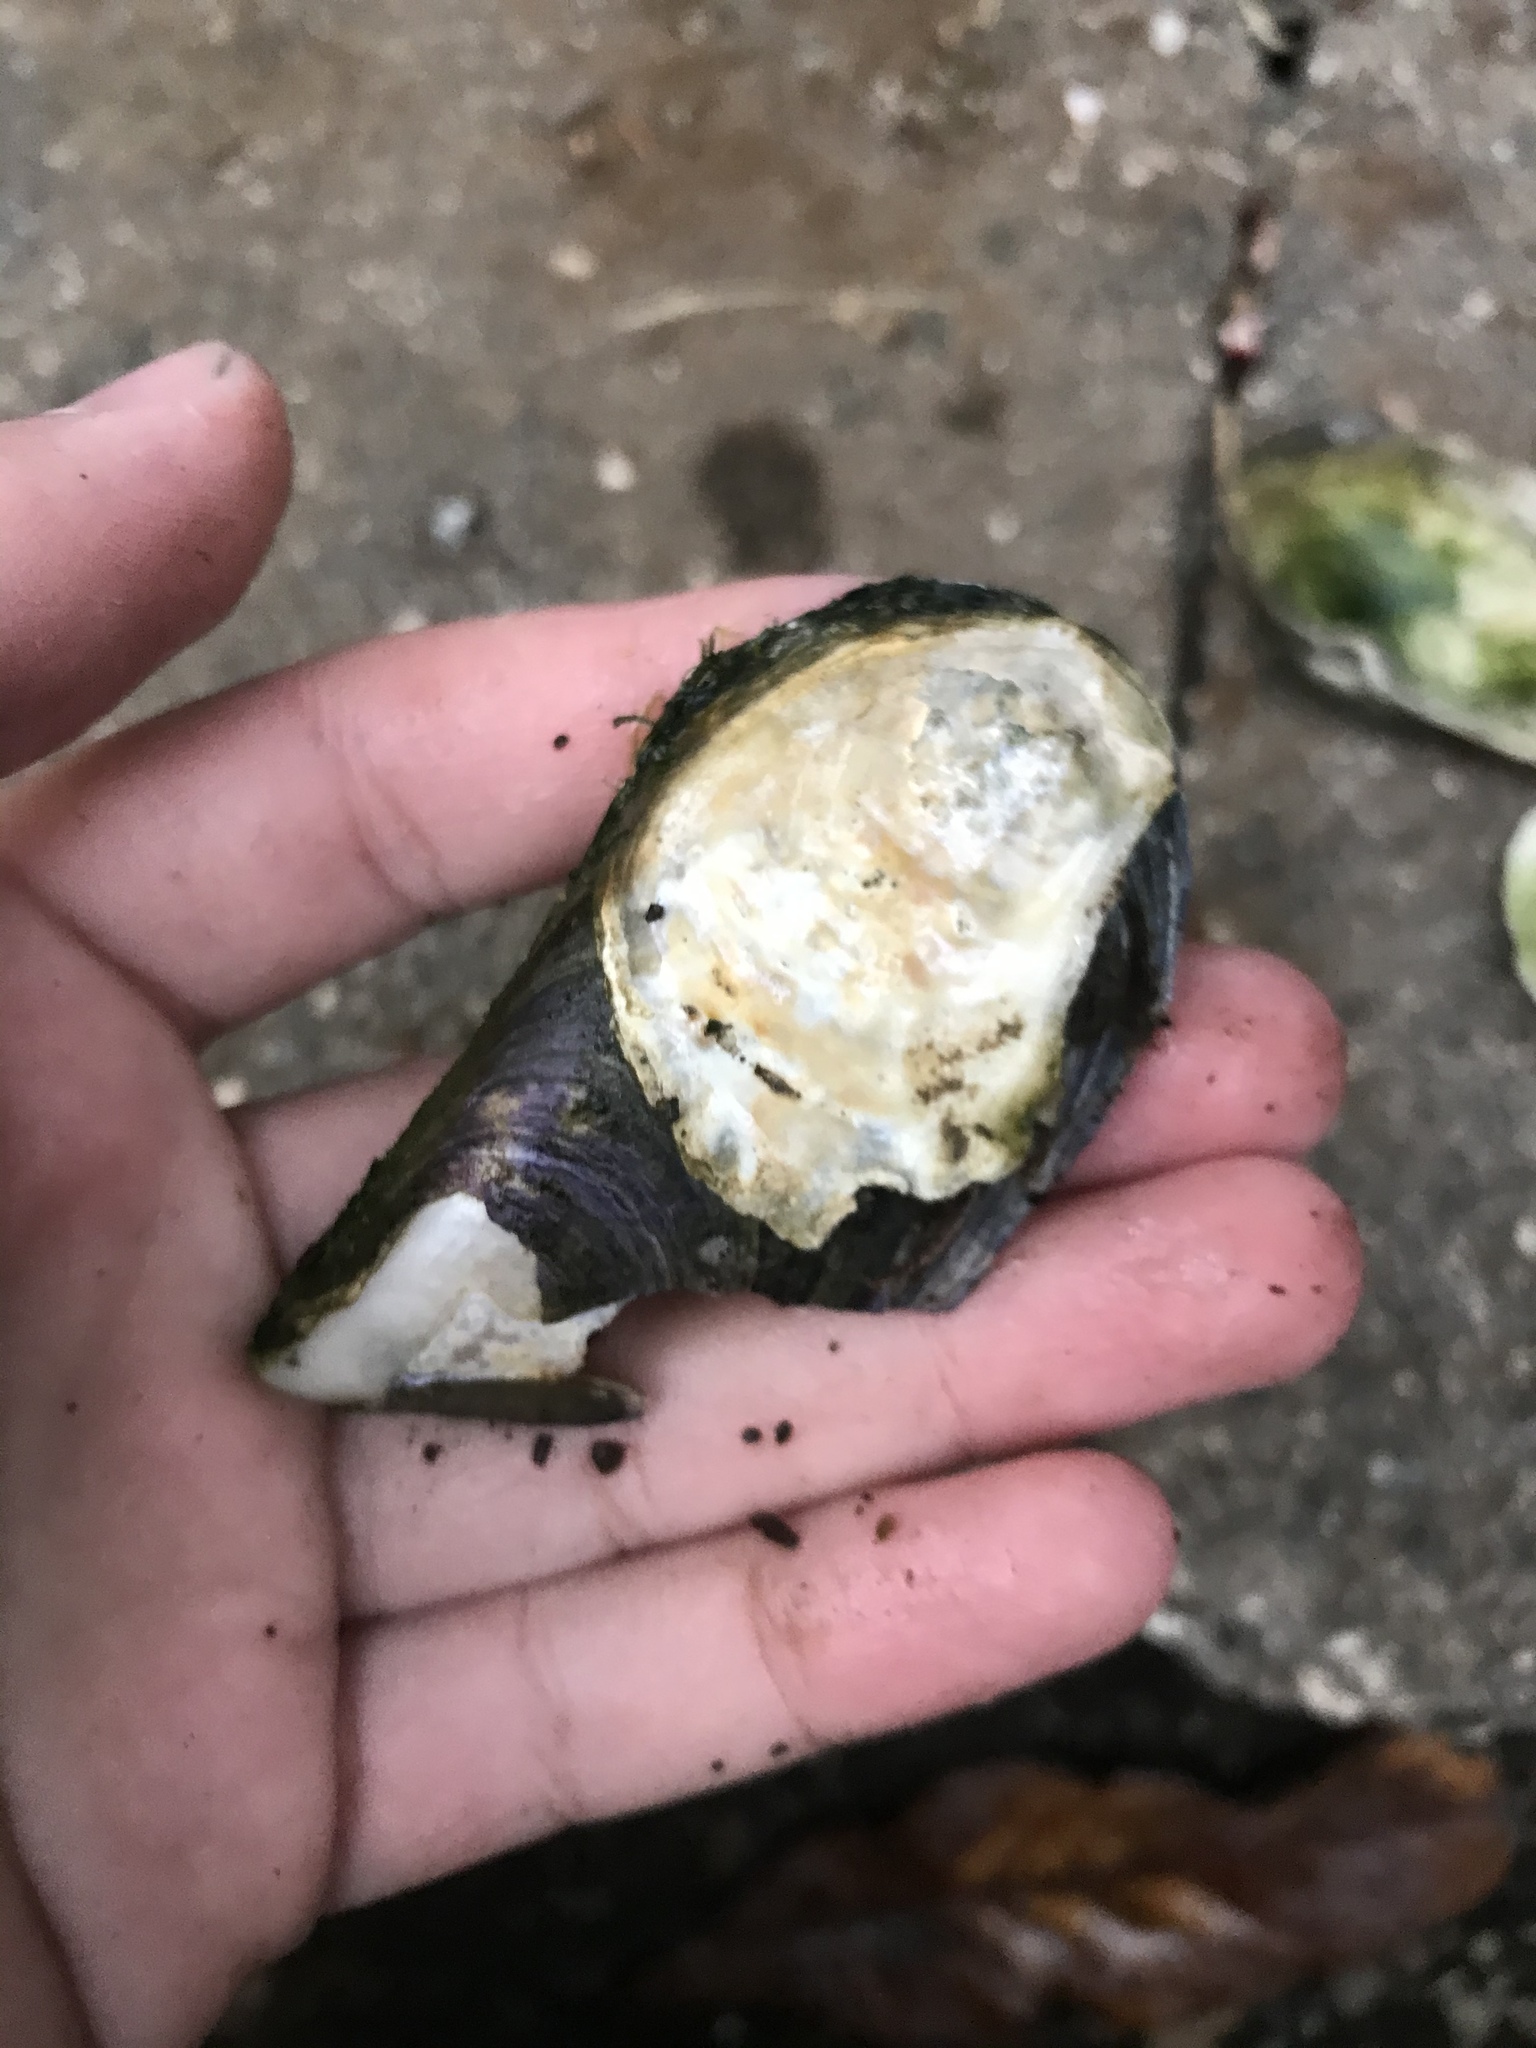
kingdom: Animalia
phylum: Mollusca
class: Bivalvia
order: Mytilida
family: Mytilidae
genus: Mytilus
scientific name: Mytilus
